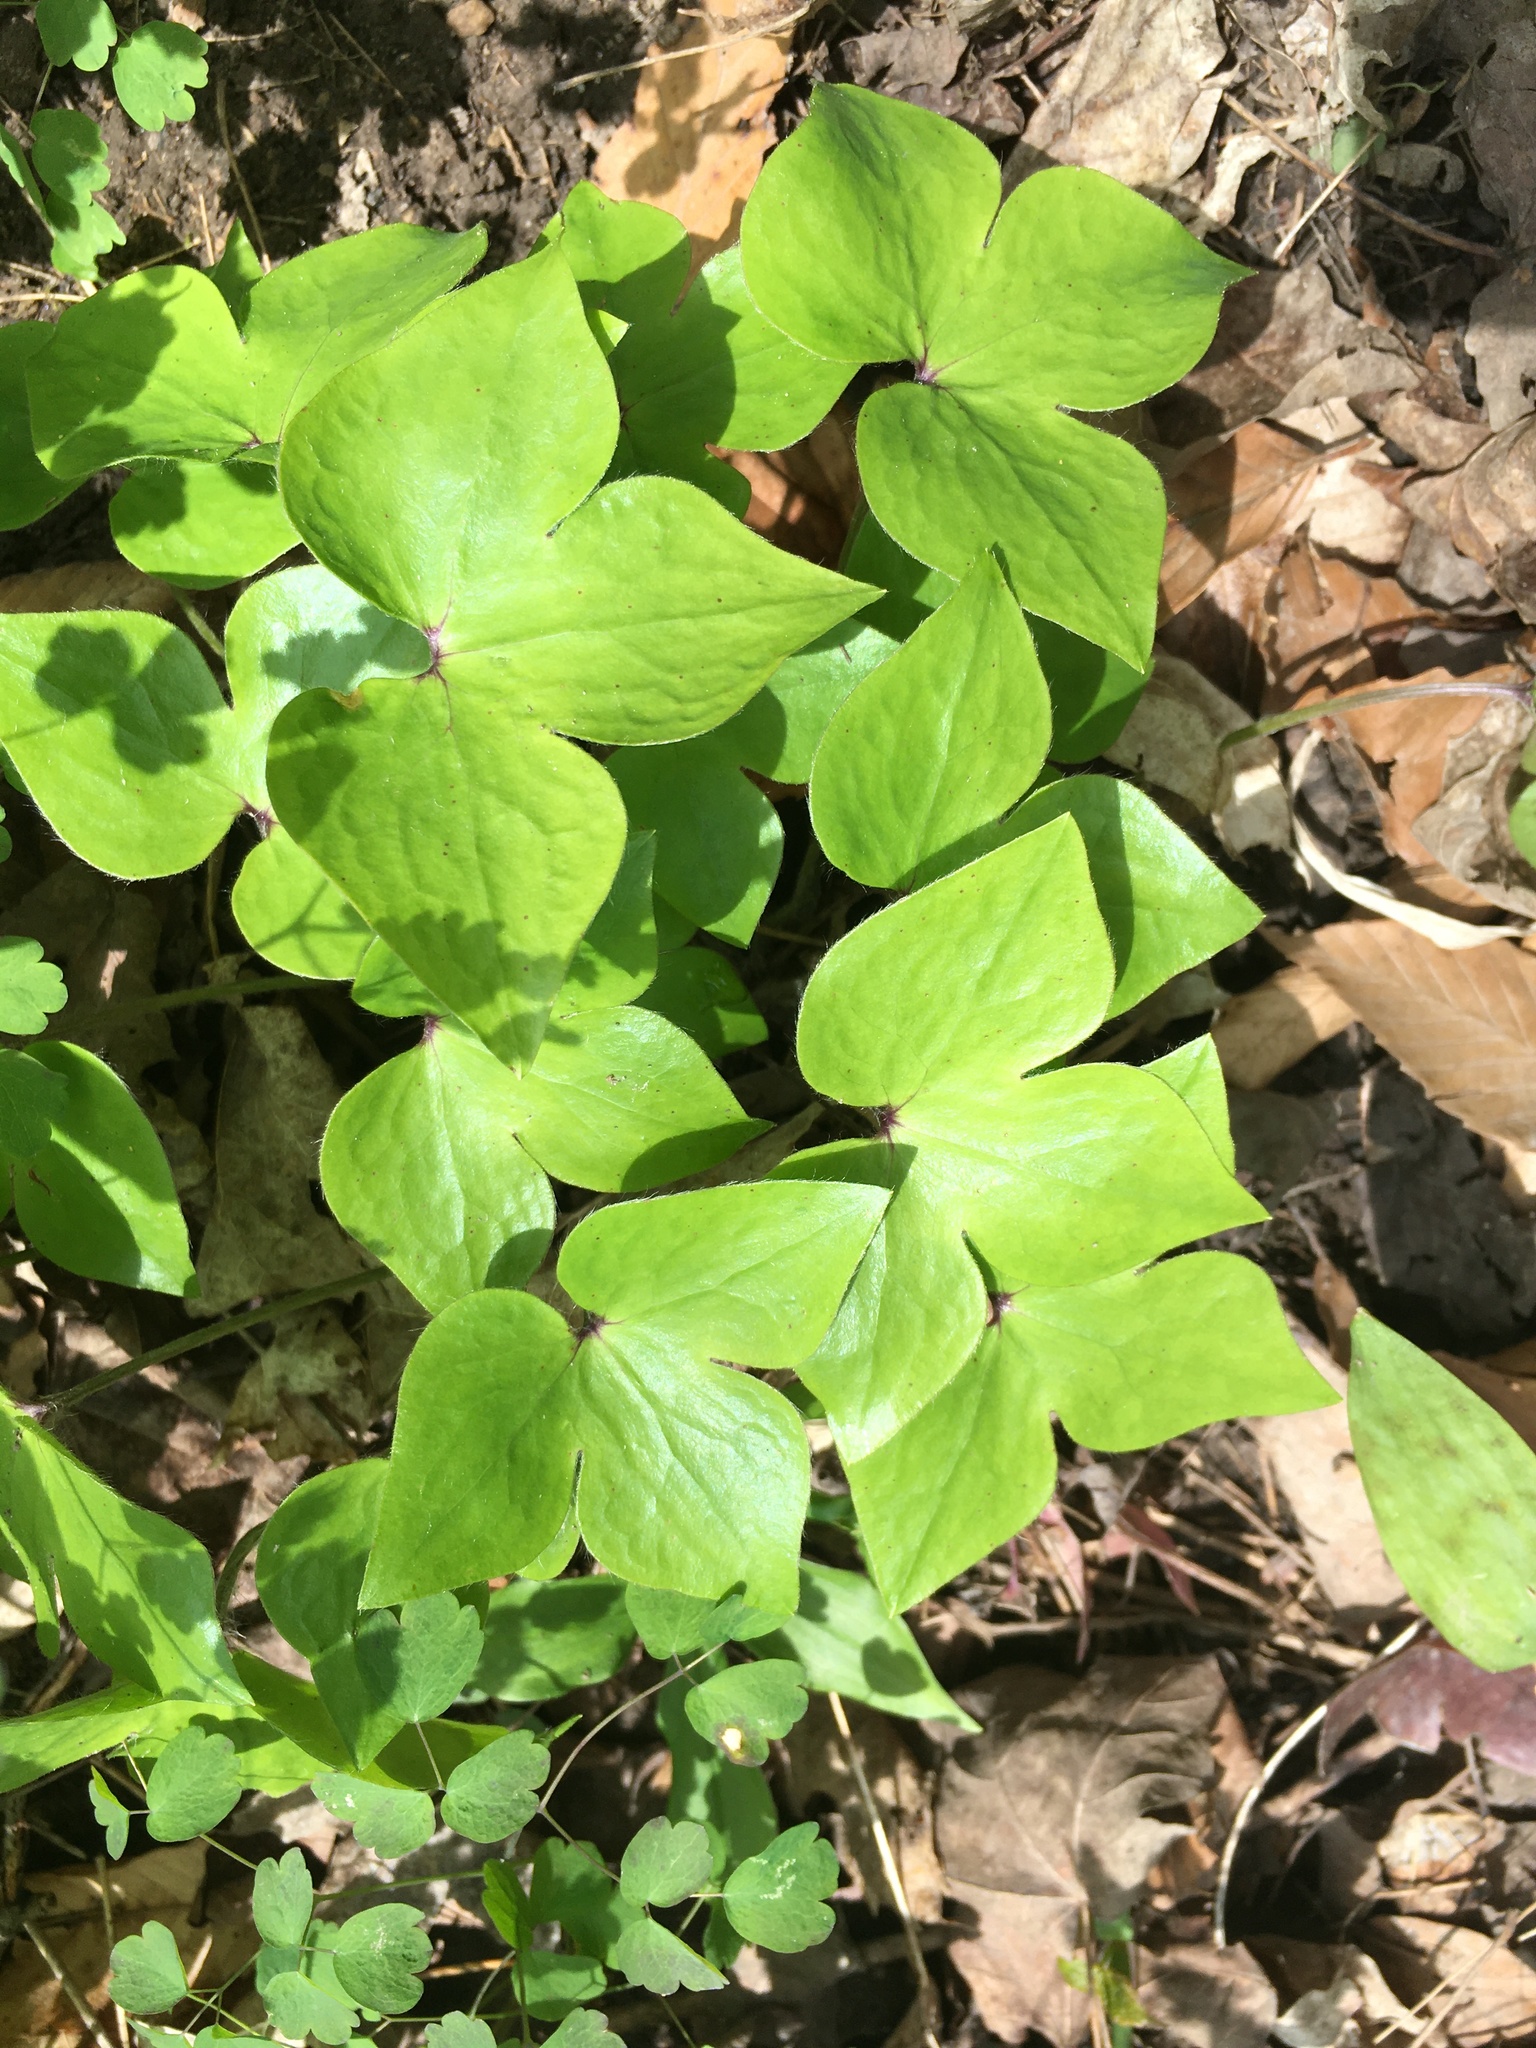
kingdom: Plantae
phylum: Tracheophyta
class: Magnoliopsida
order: Ranunculales
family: Ranunculaceae
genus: Hepatica
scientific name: Hepatica acutiloba
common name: Sharp-lobed hepatica
